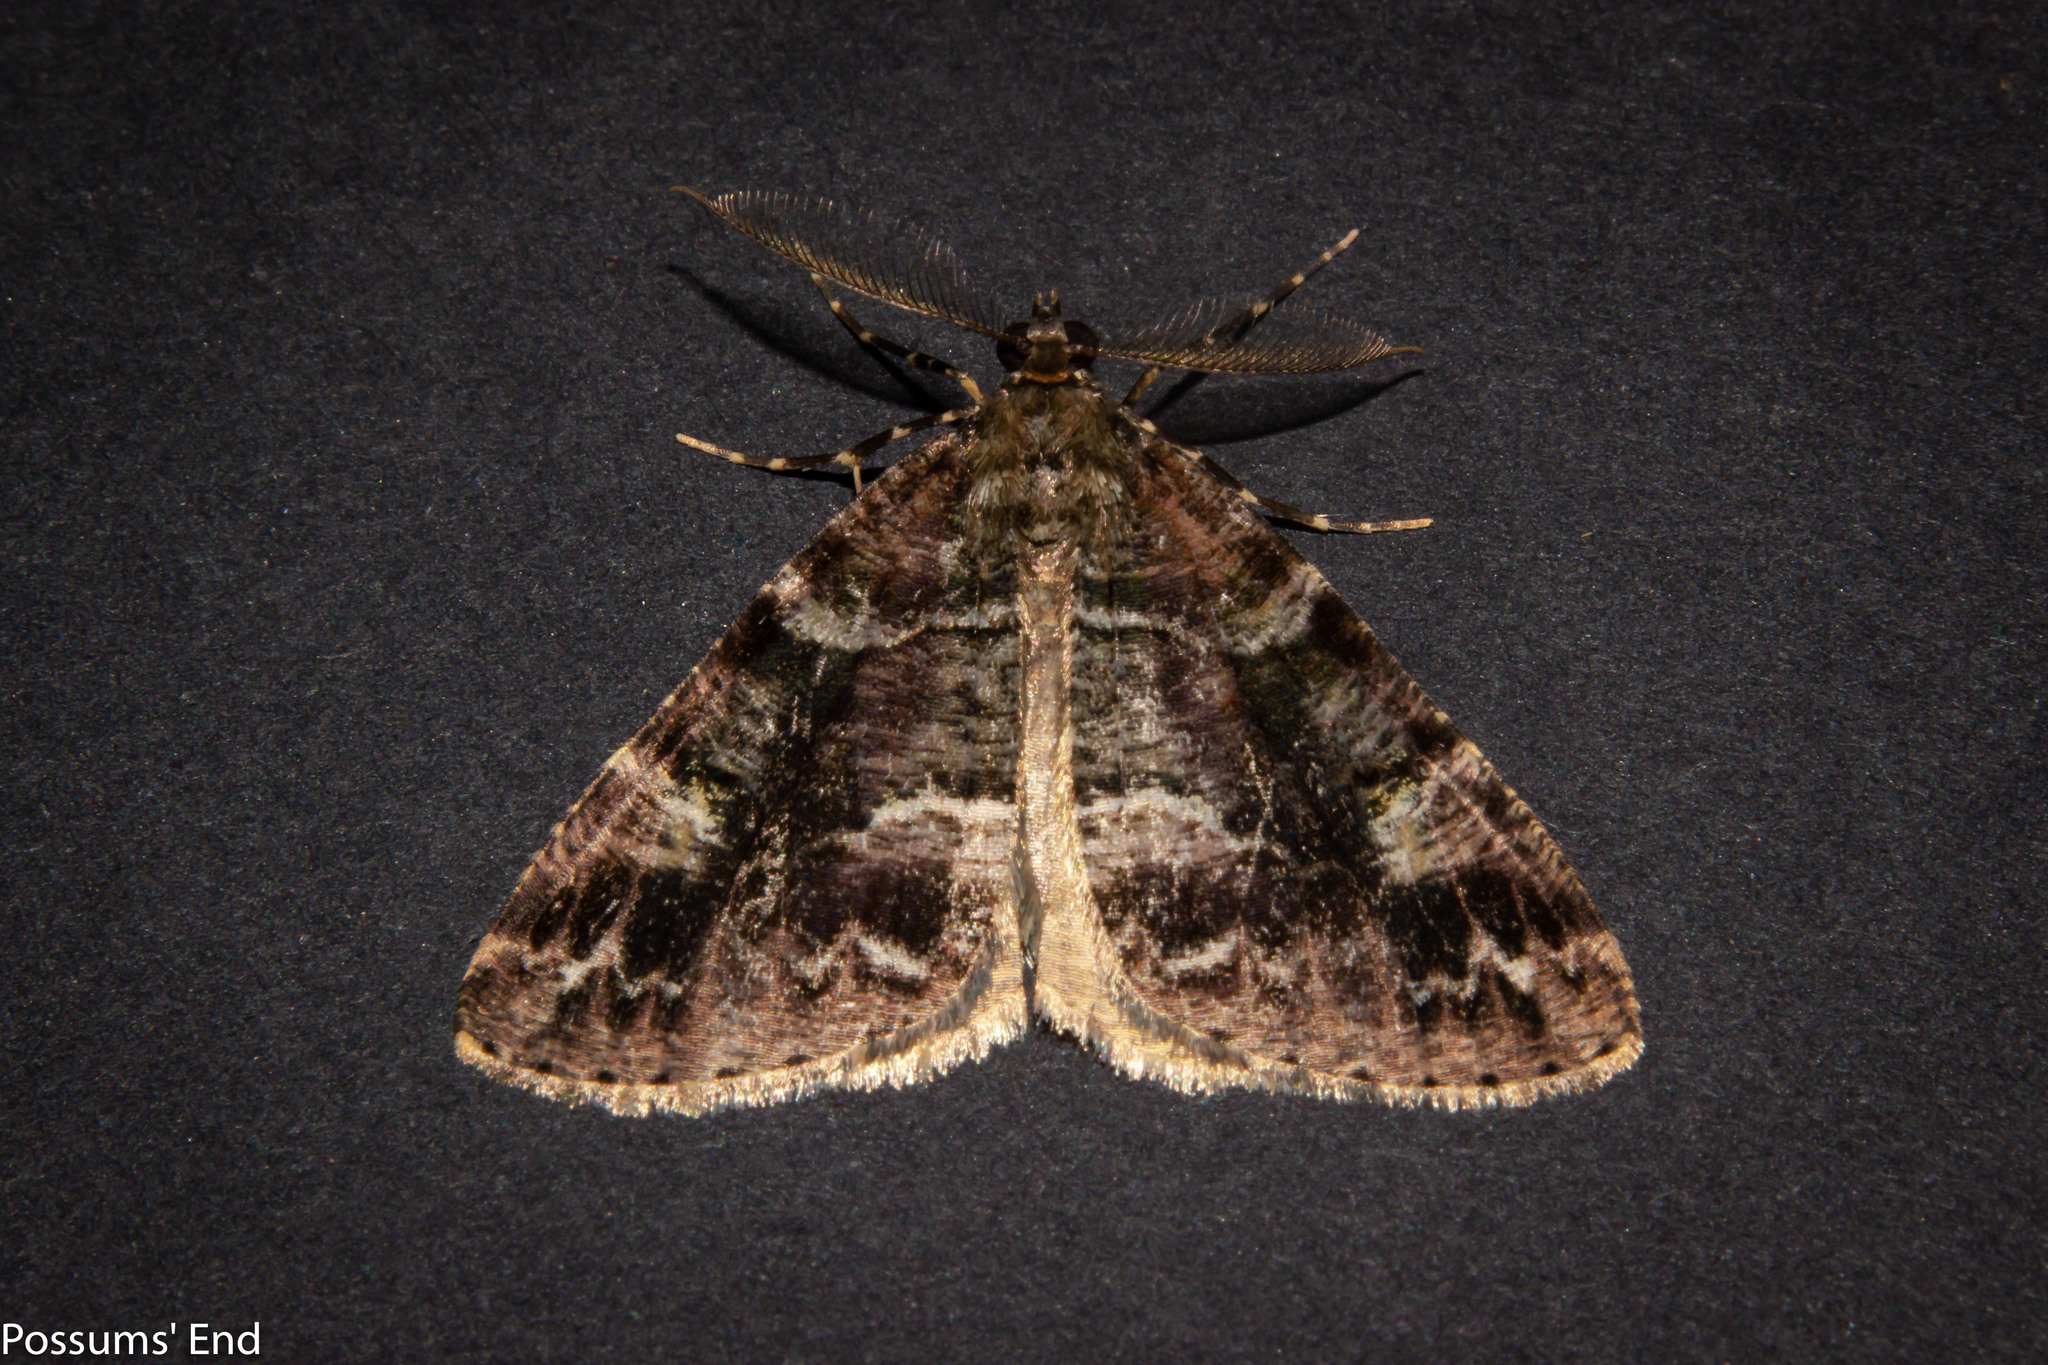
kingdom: Animalia
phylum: Arthropoda
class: Insecta
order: Lepidoptera
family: Geometridae
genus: Pseudocoremia
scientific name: Pseudocoremia productata
